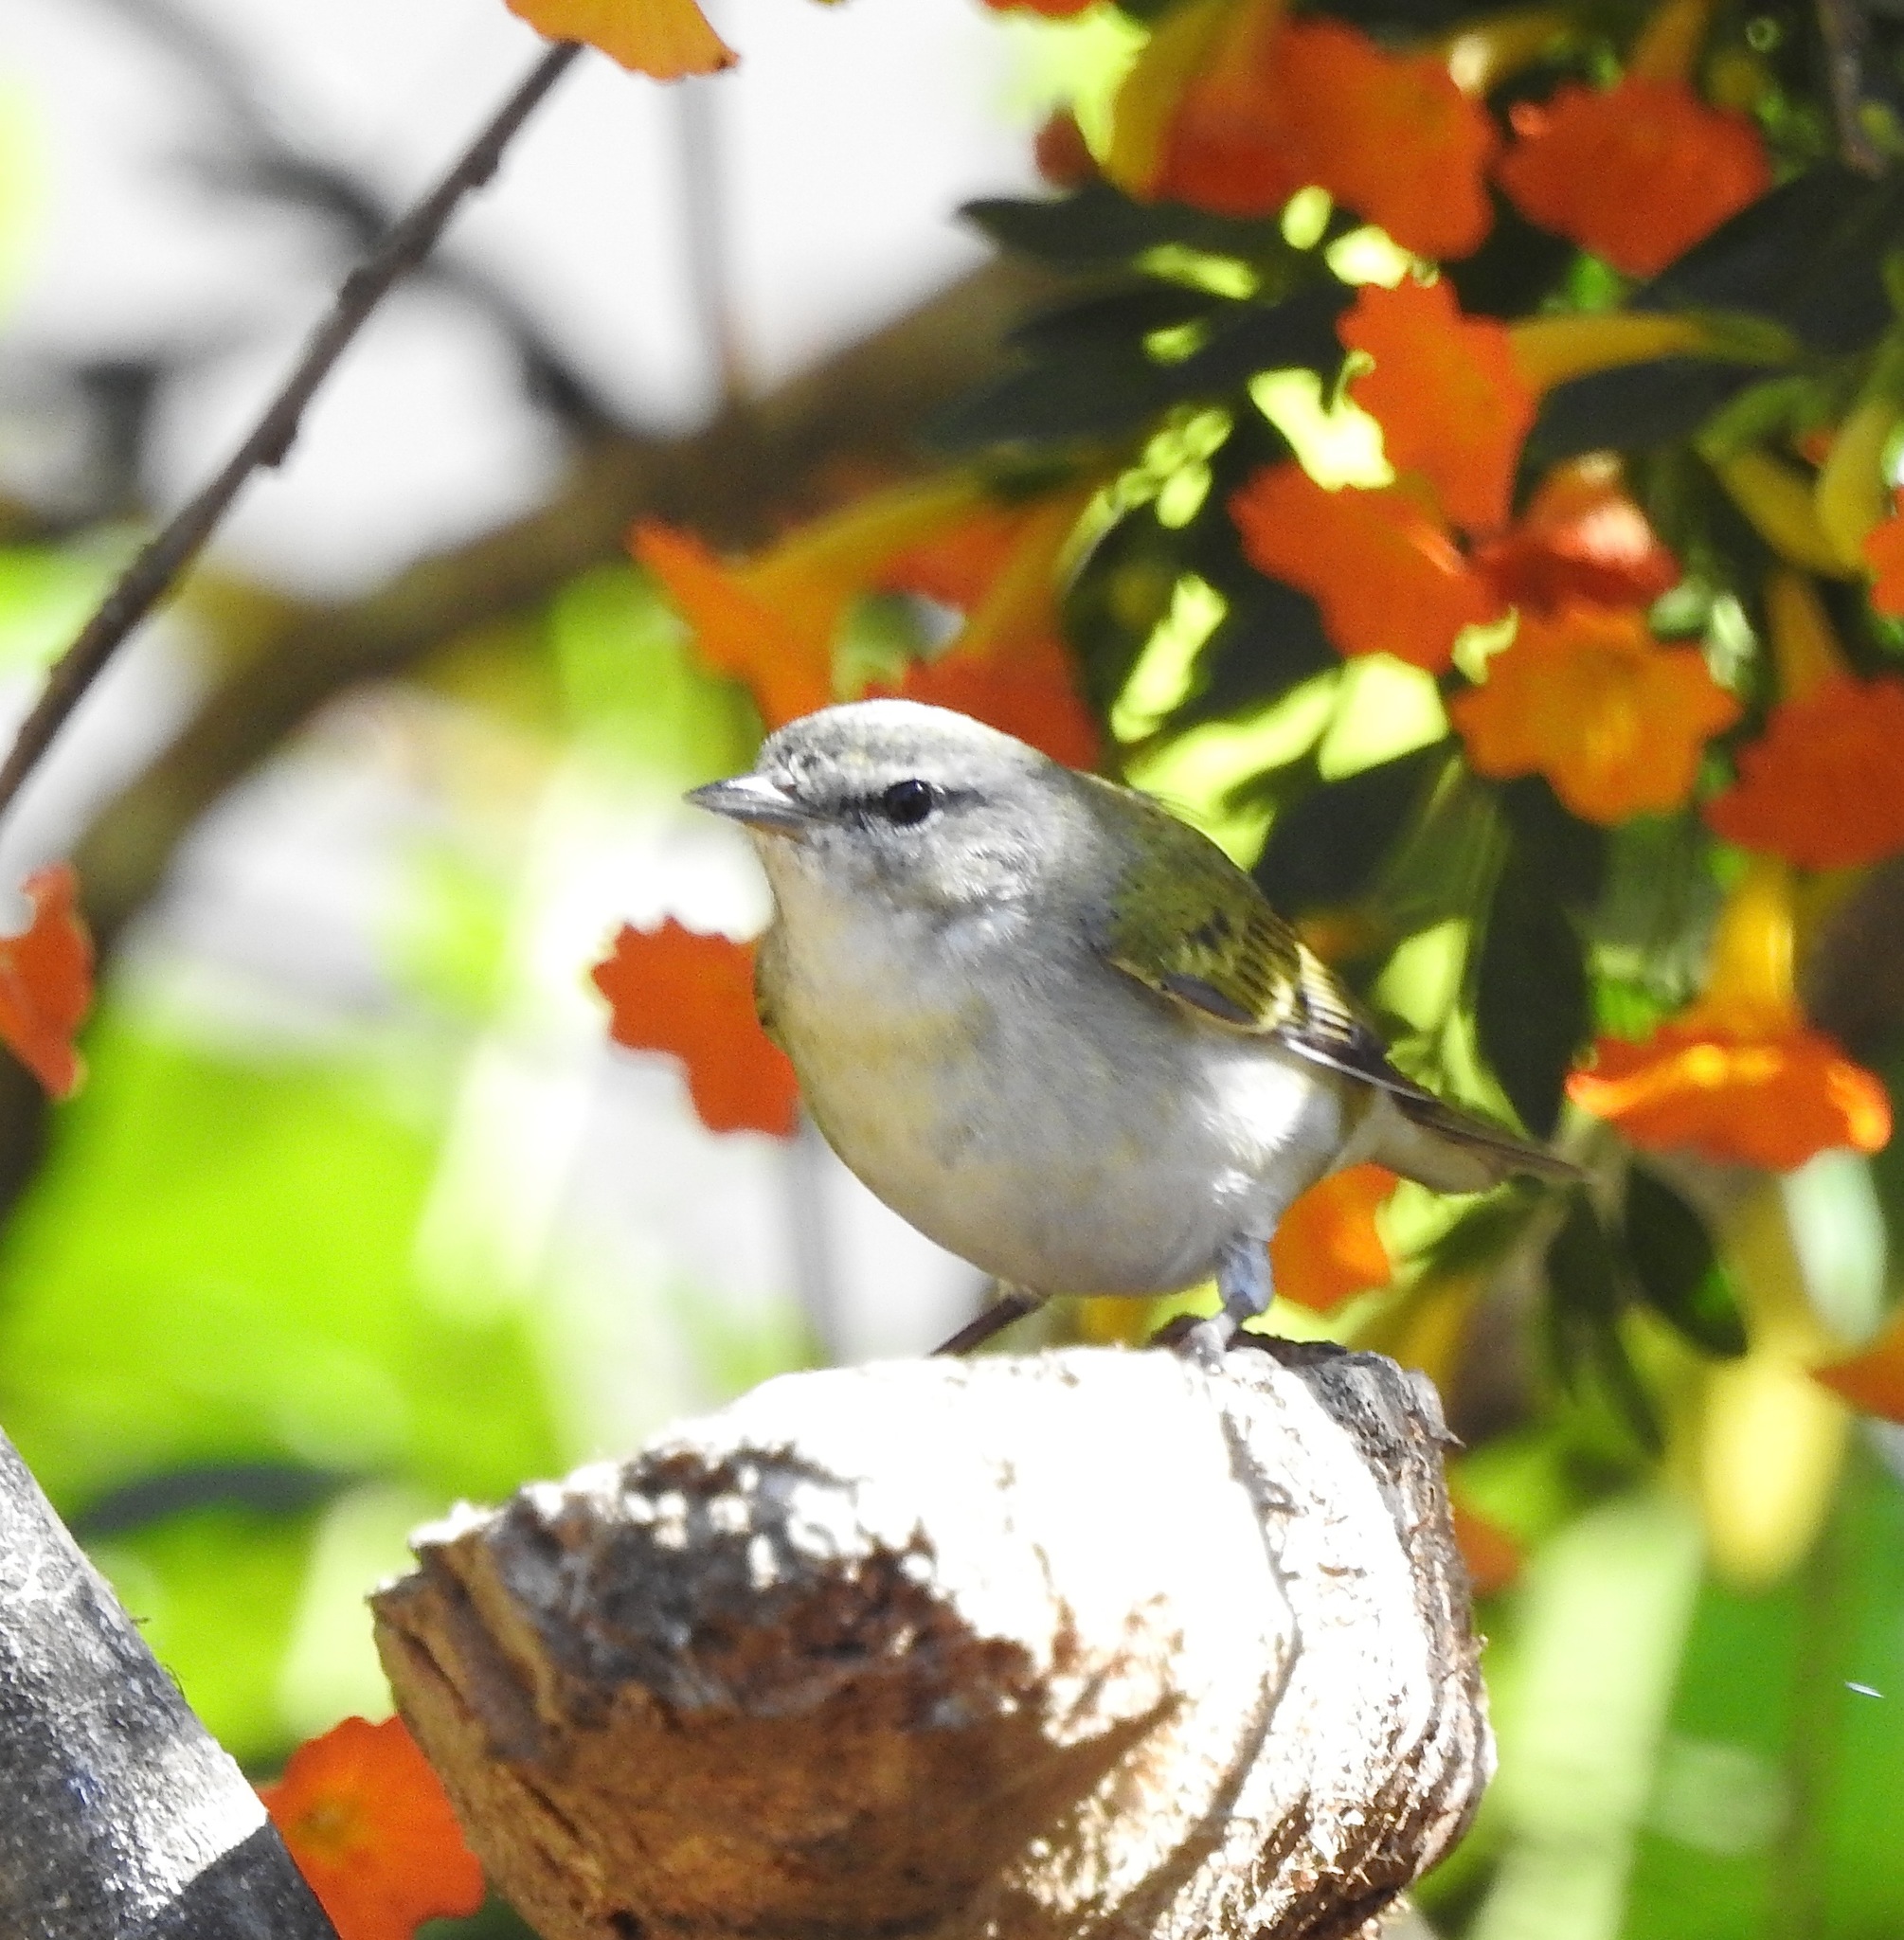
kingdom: Animalia
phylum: Chordata
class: Aves
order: Passeriformes
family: Parulidae
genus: Leiothlypis
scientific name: Leiothlypis peregrina
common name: Tennessee warbler
